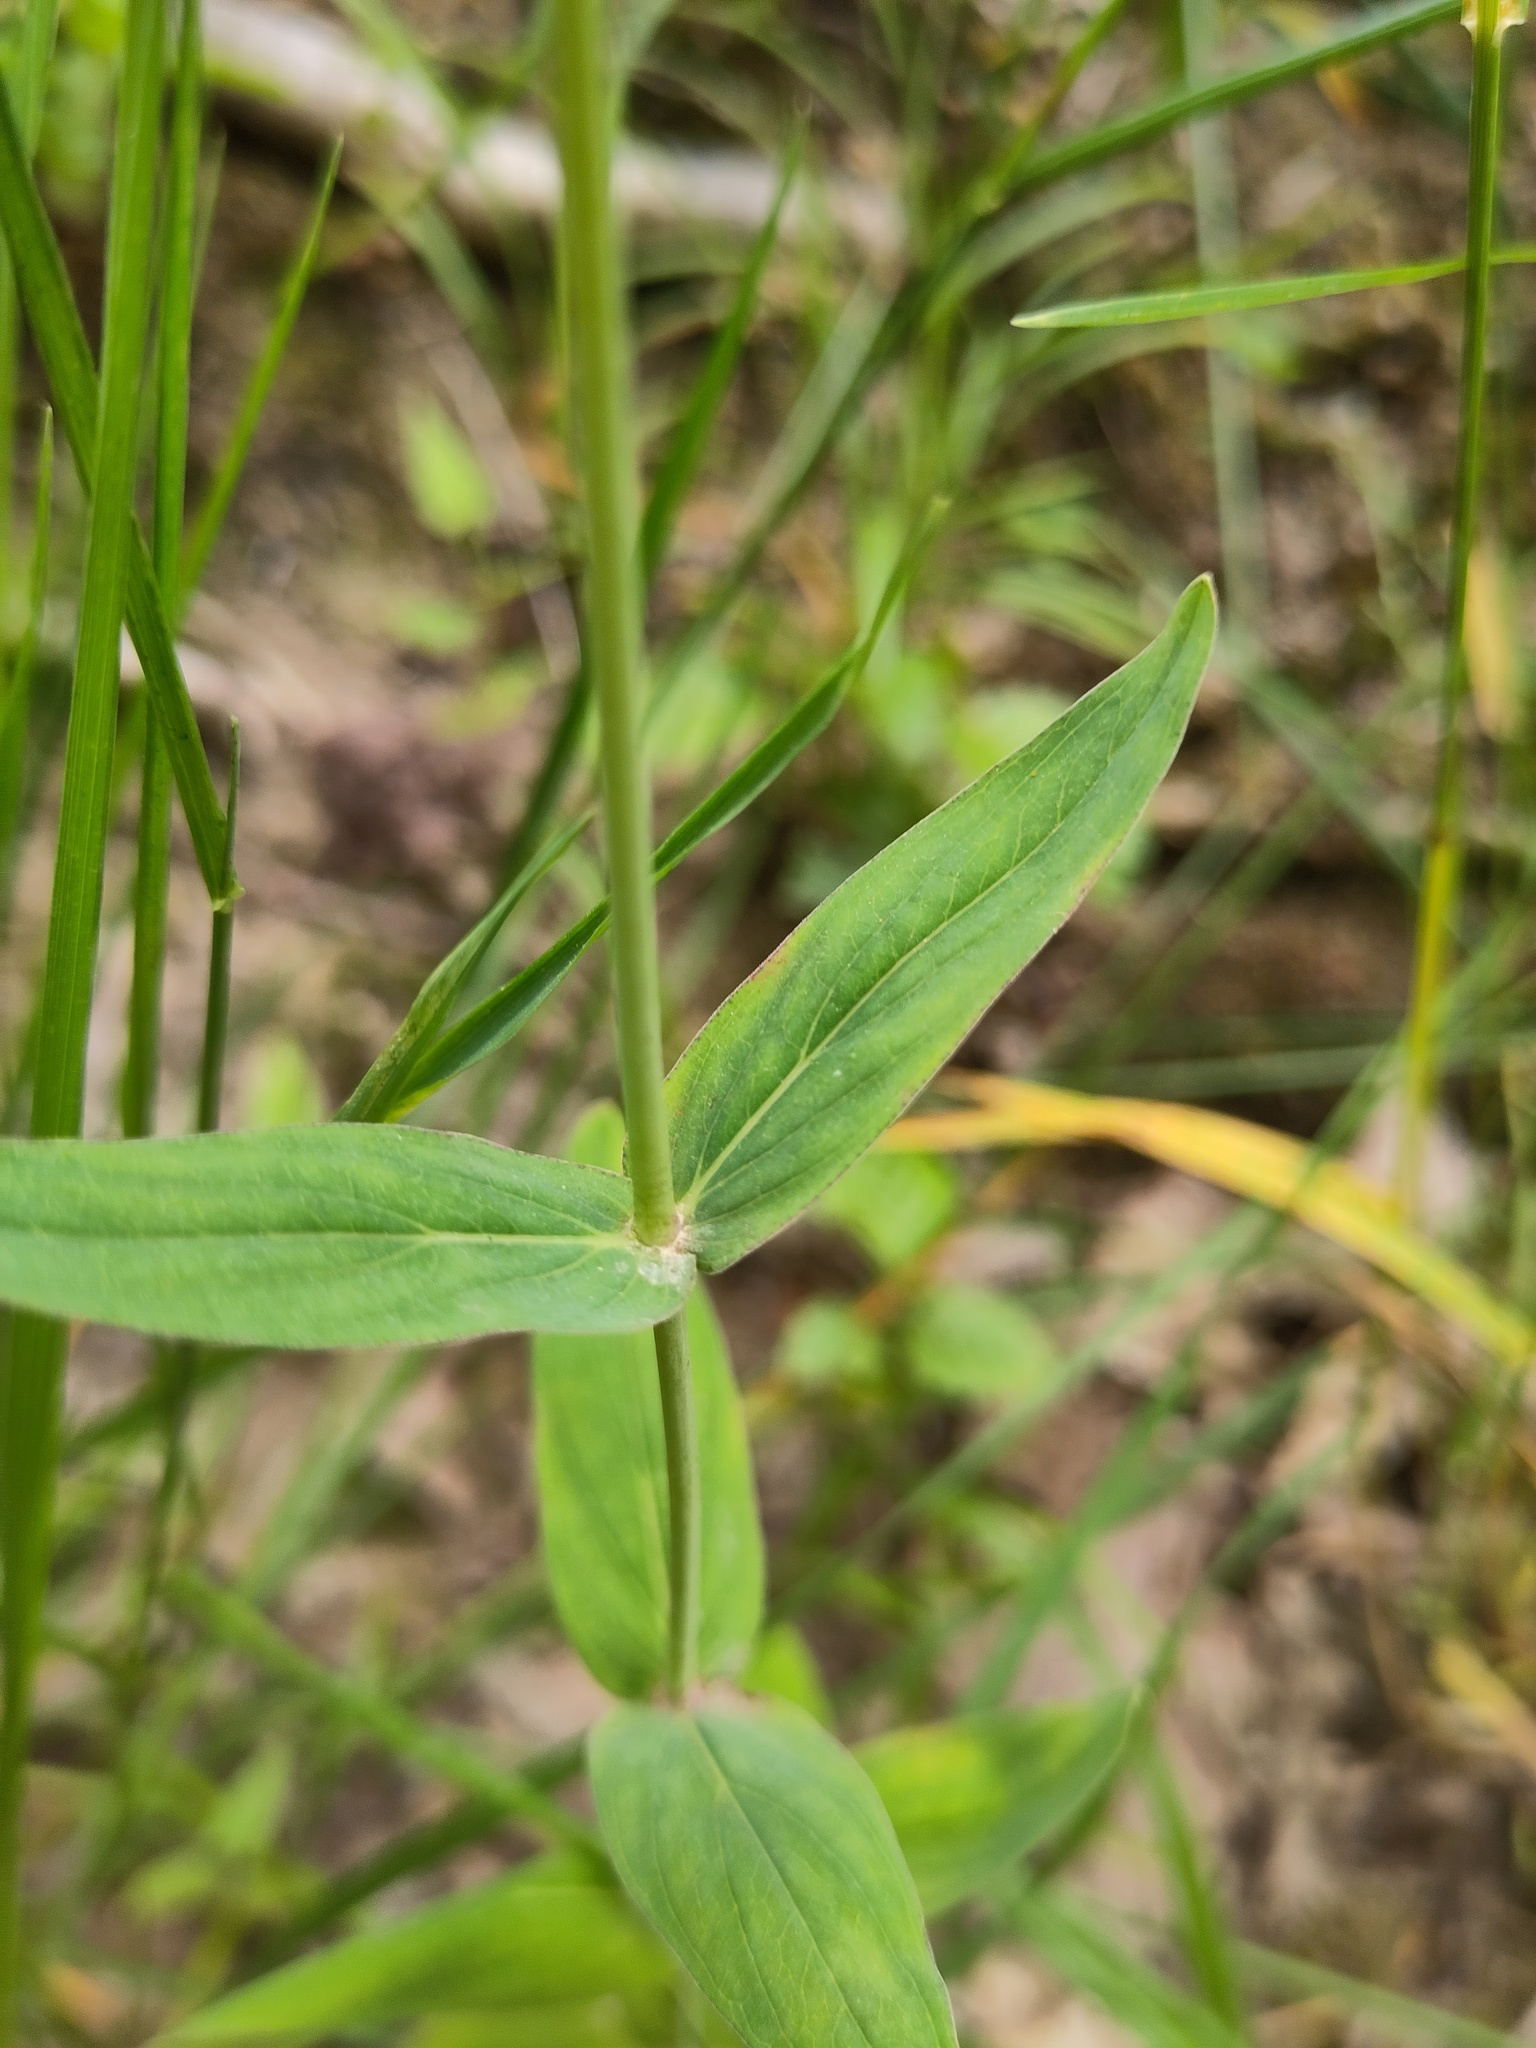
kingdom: Plantae
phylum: Tracheophyta
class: Magnoliopsida
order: Malpighiales
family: Hypericaceae
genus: Hypericum
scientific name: Hypericum montanum
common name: Pale st. john's-wort
